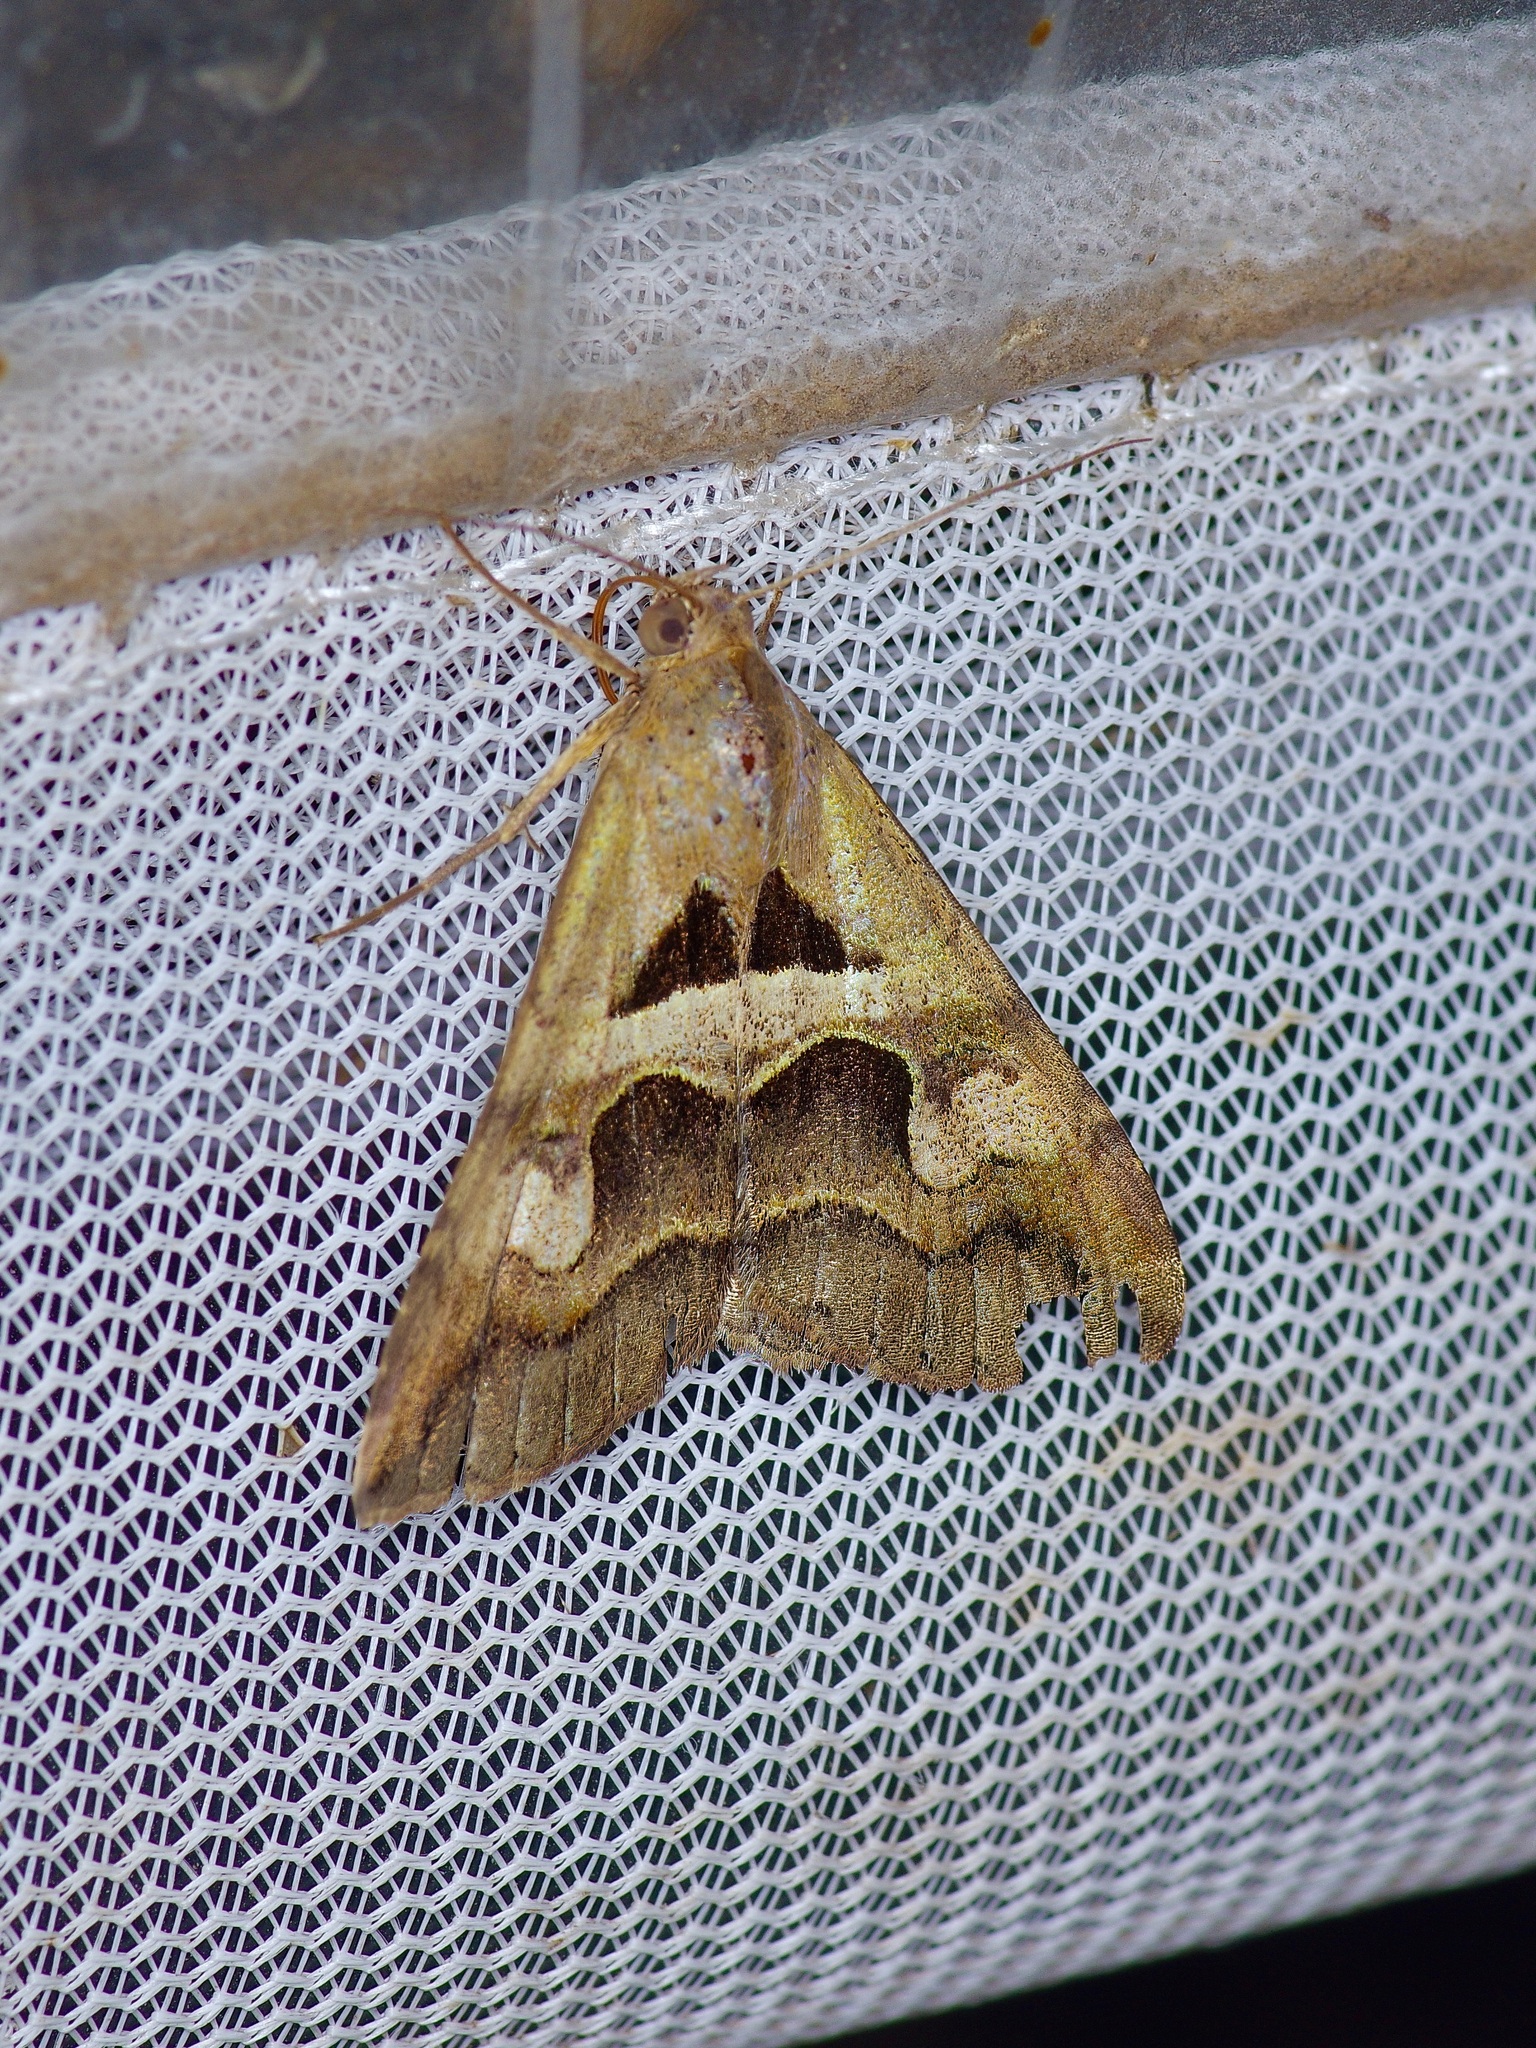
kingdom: Animalia
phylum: Arthropoda
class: Insecta
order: Lepidoptera
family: Erebidae
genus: Melipotis
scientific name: Melipotis cellaris
